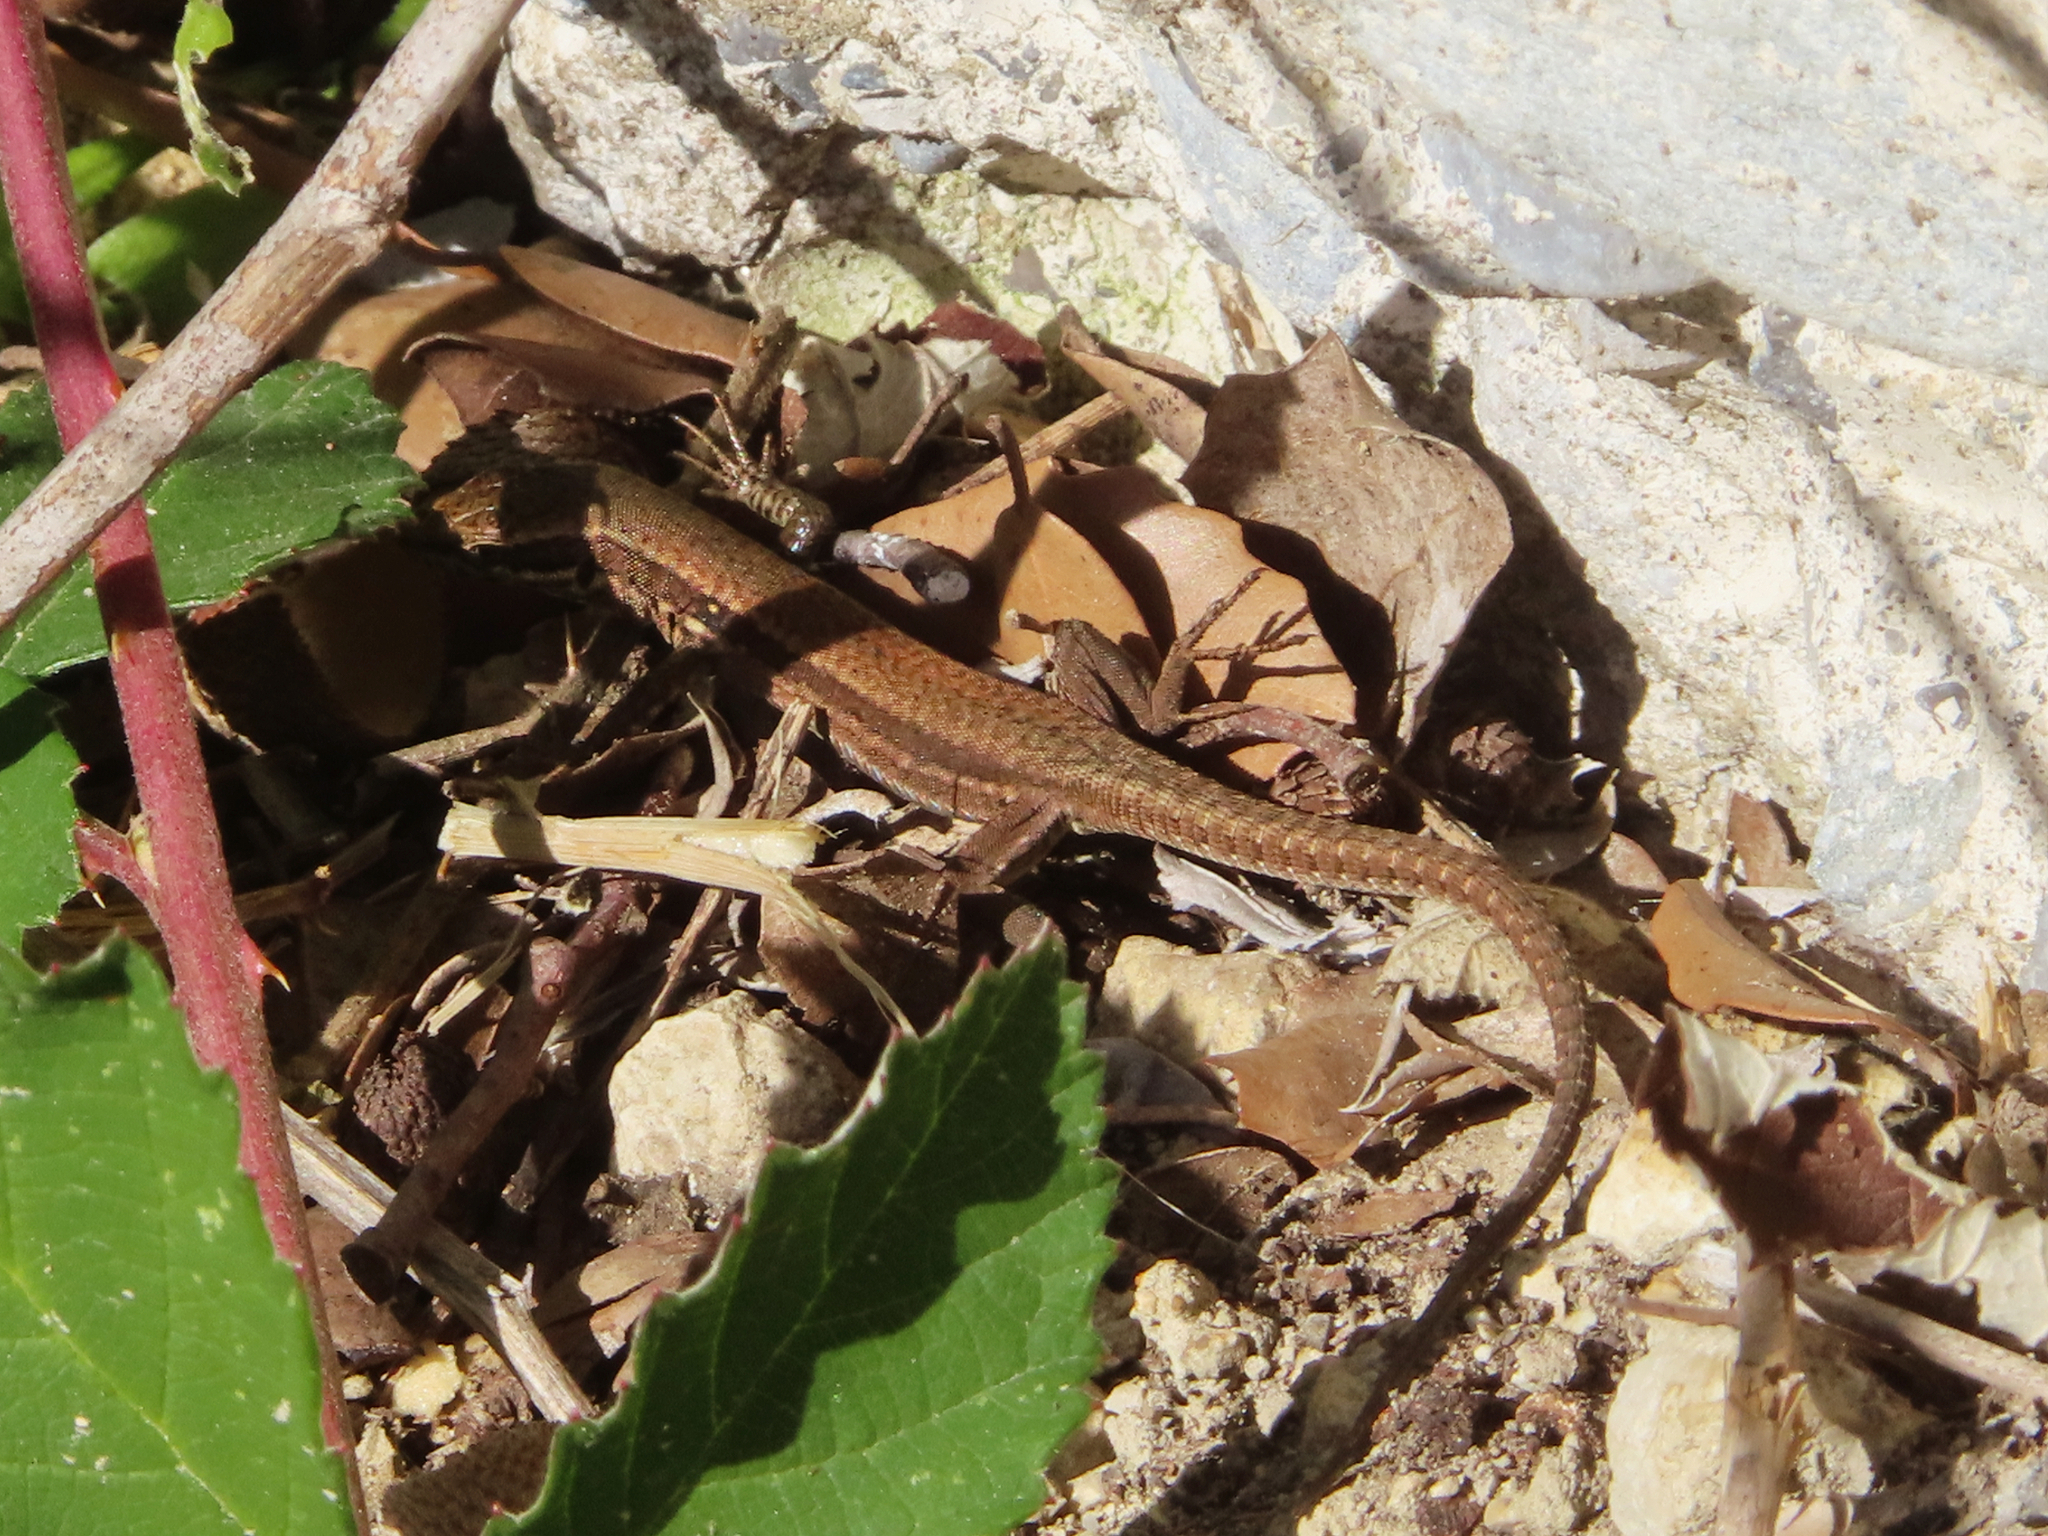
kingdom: Animalia
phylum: Chordata
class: Squamata
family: Lacertidae
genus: Podarcis
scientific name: Podarcis muralis
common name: Common wall lizard
